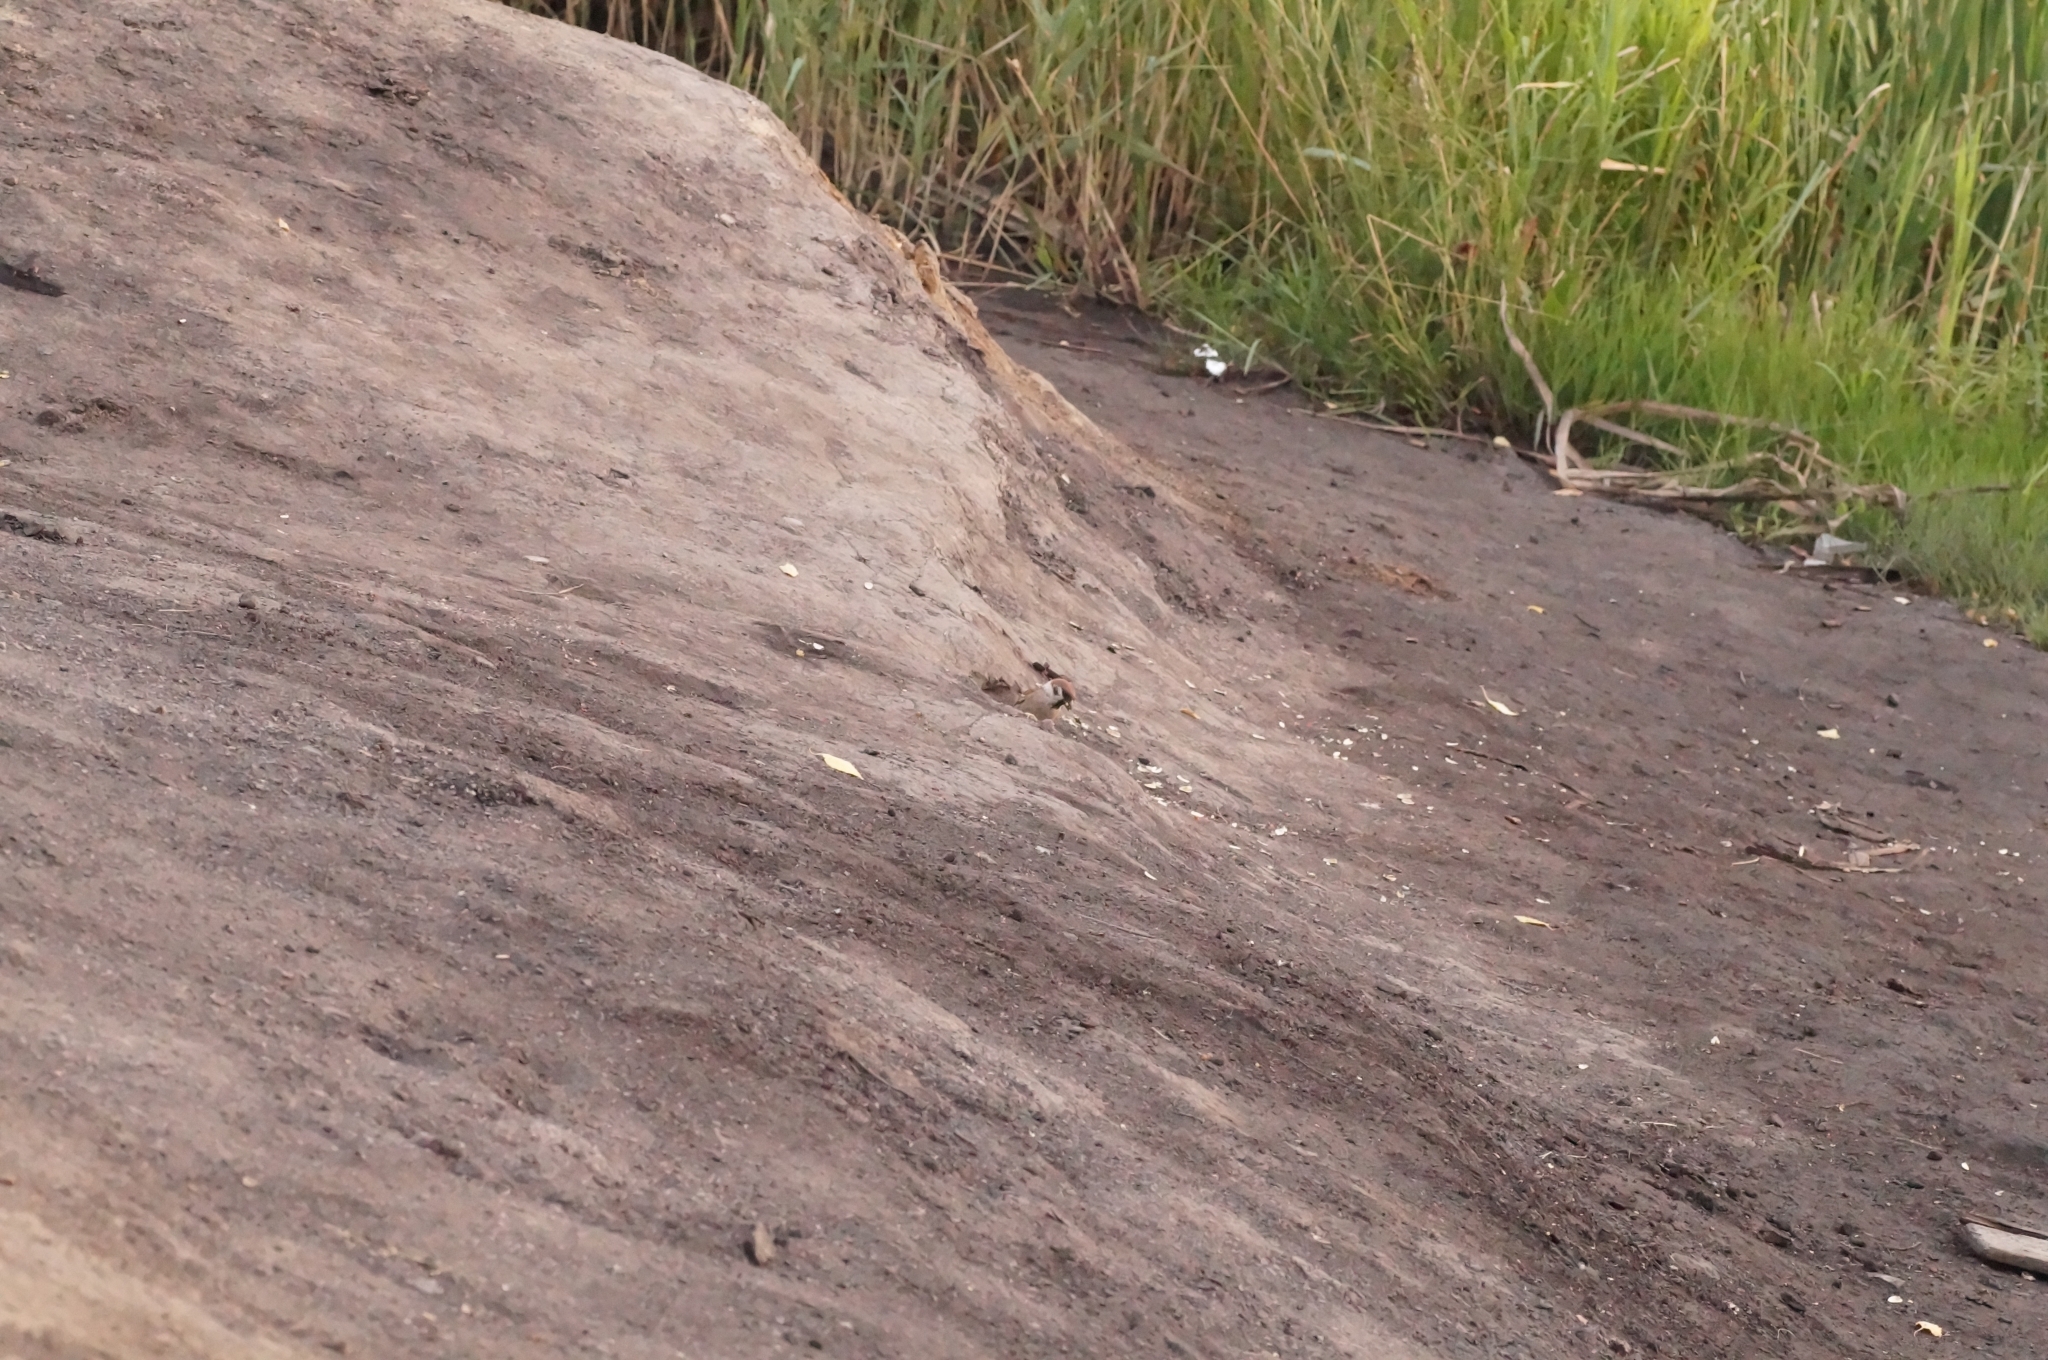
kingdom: Animalia
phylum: Chordata
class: Aves
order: Passeriformes
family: Passeridae
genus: Passer
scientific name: Passer montanus
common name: Eurasian tree sparrow
